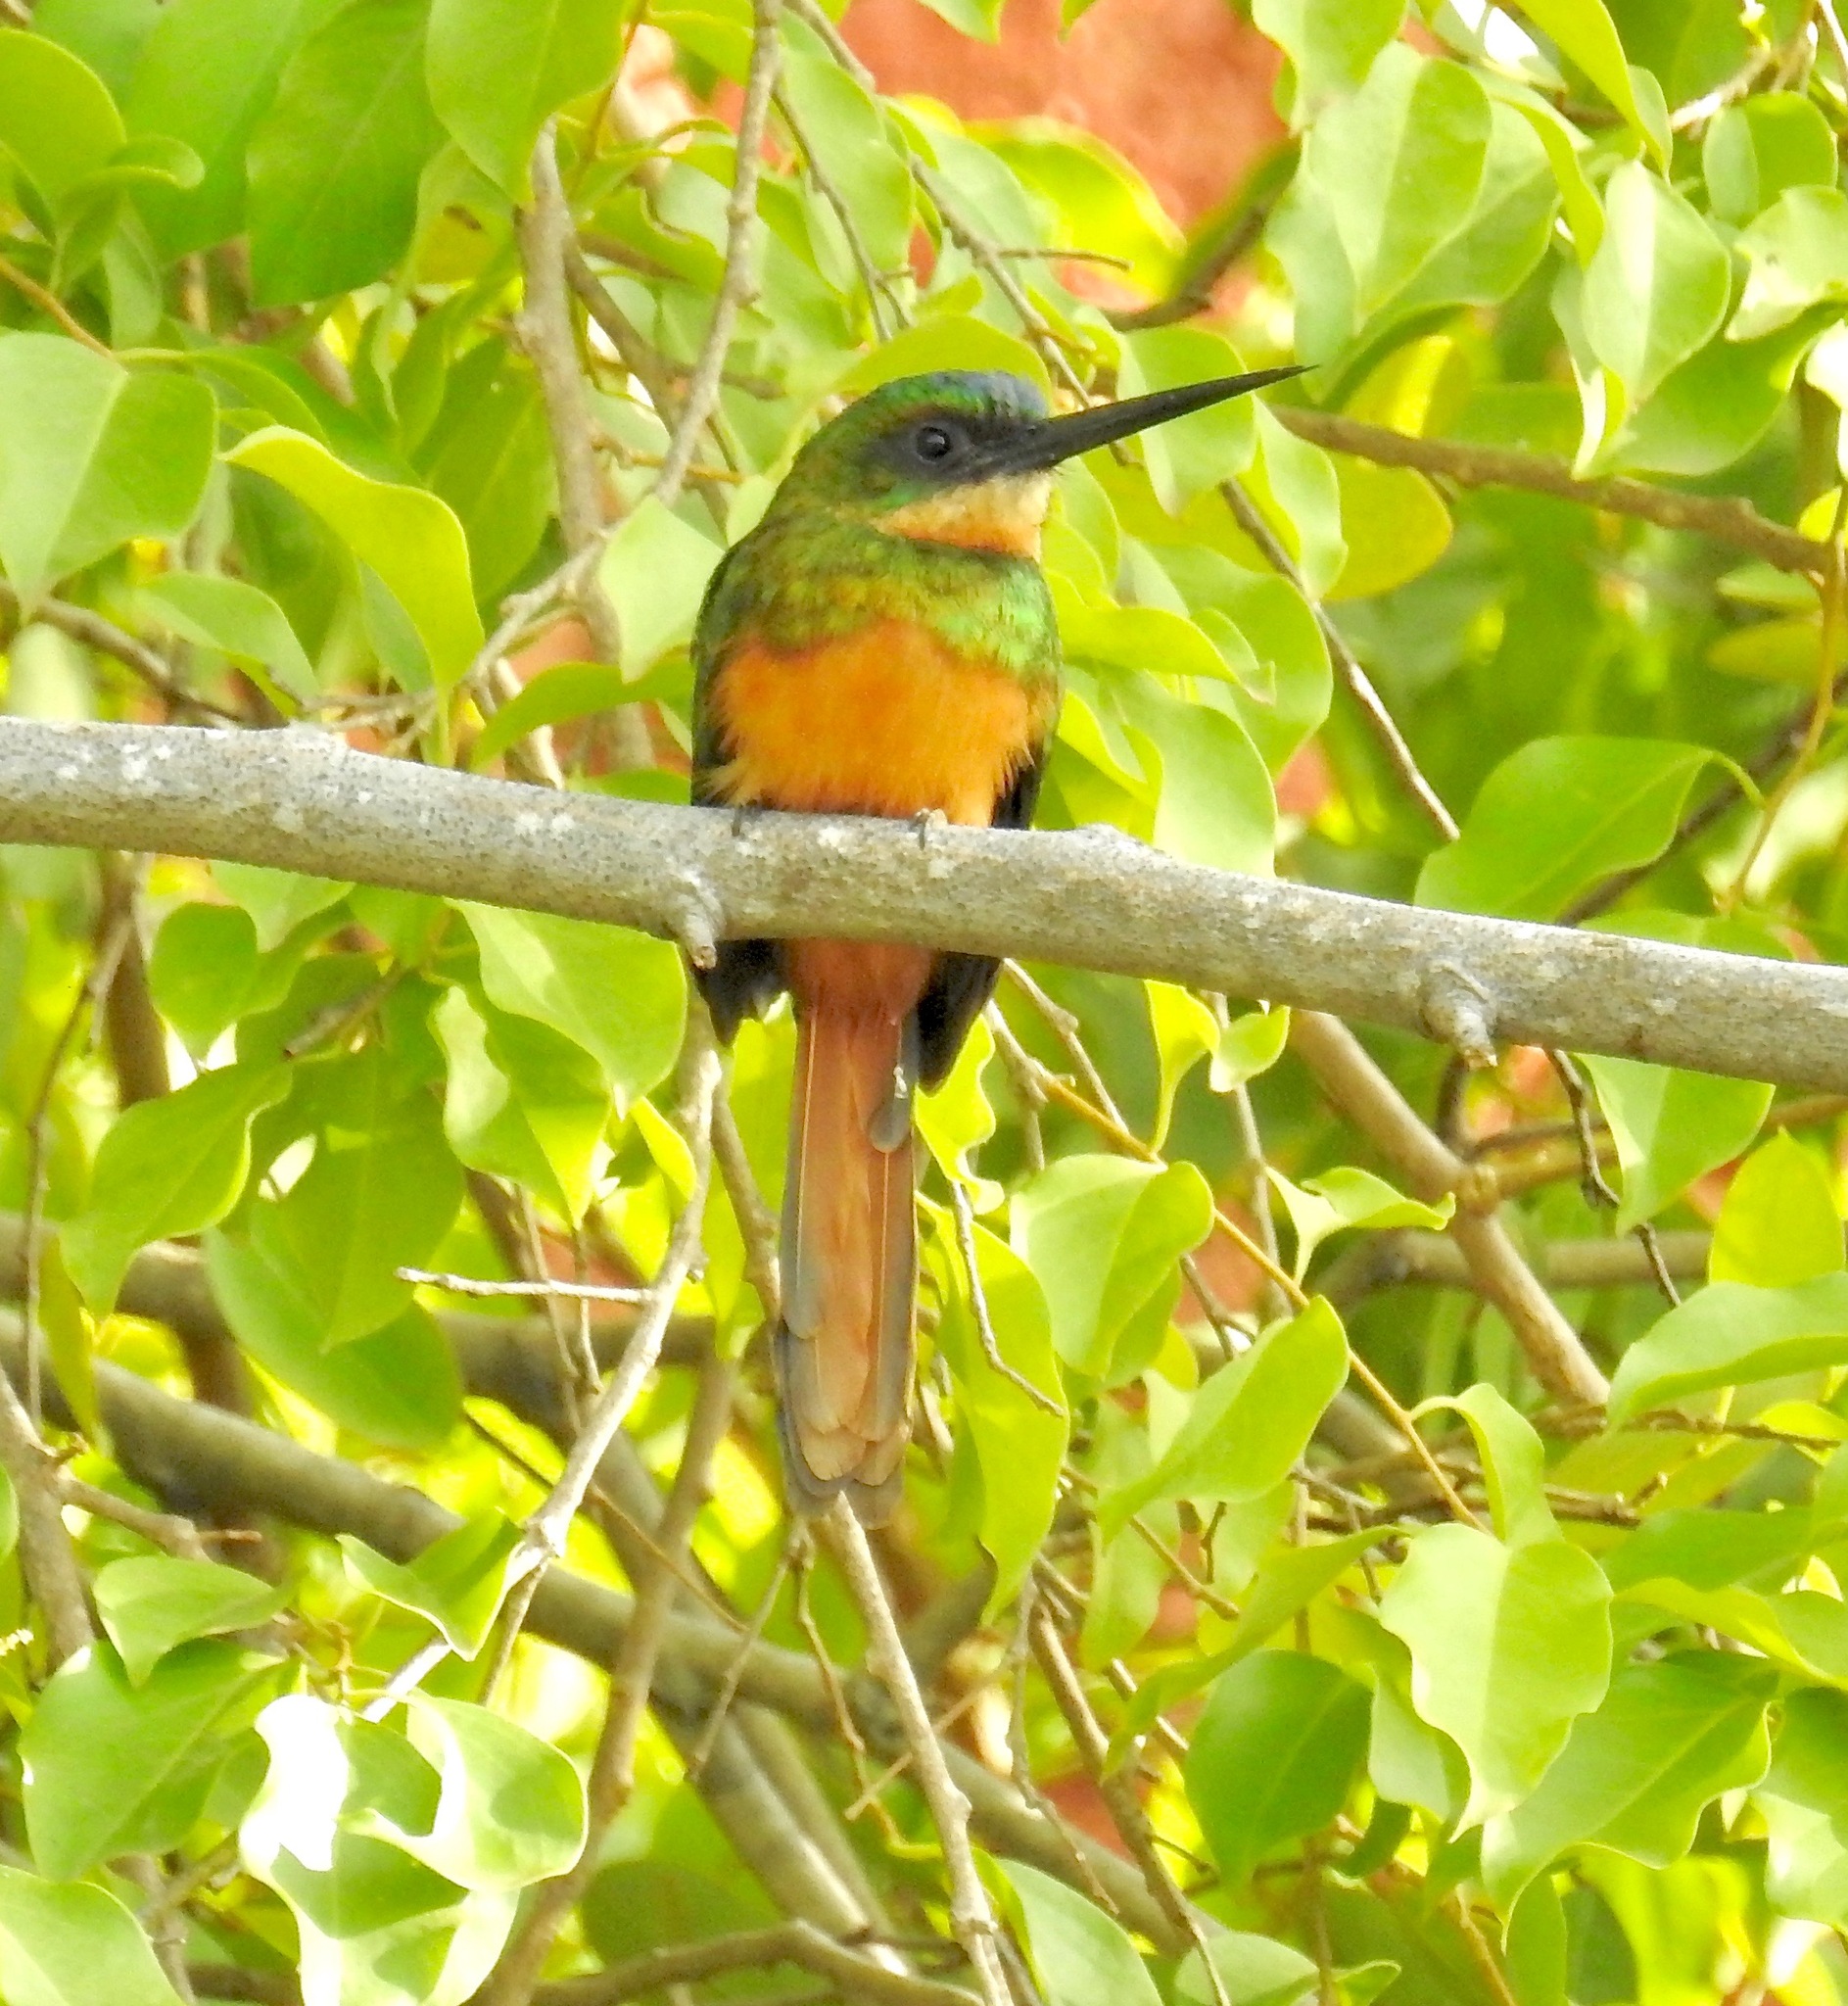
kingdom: Animalia
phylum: Chordata
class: Aves
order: Piciformes
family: Galbulidae
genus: Galbula
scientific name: Galbula ruficauda
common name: Rufous-tailed jacamar
